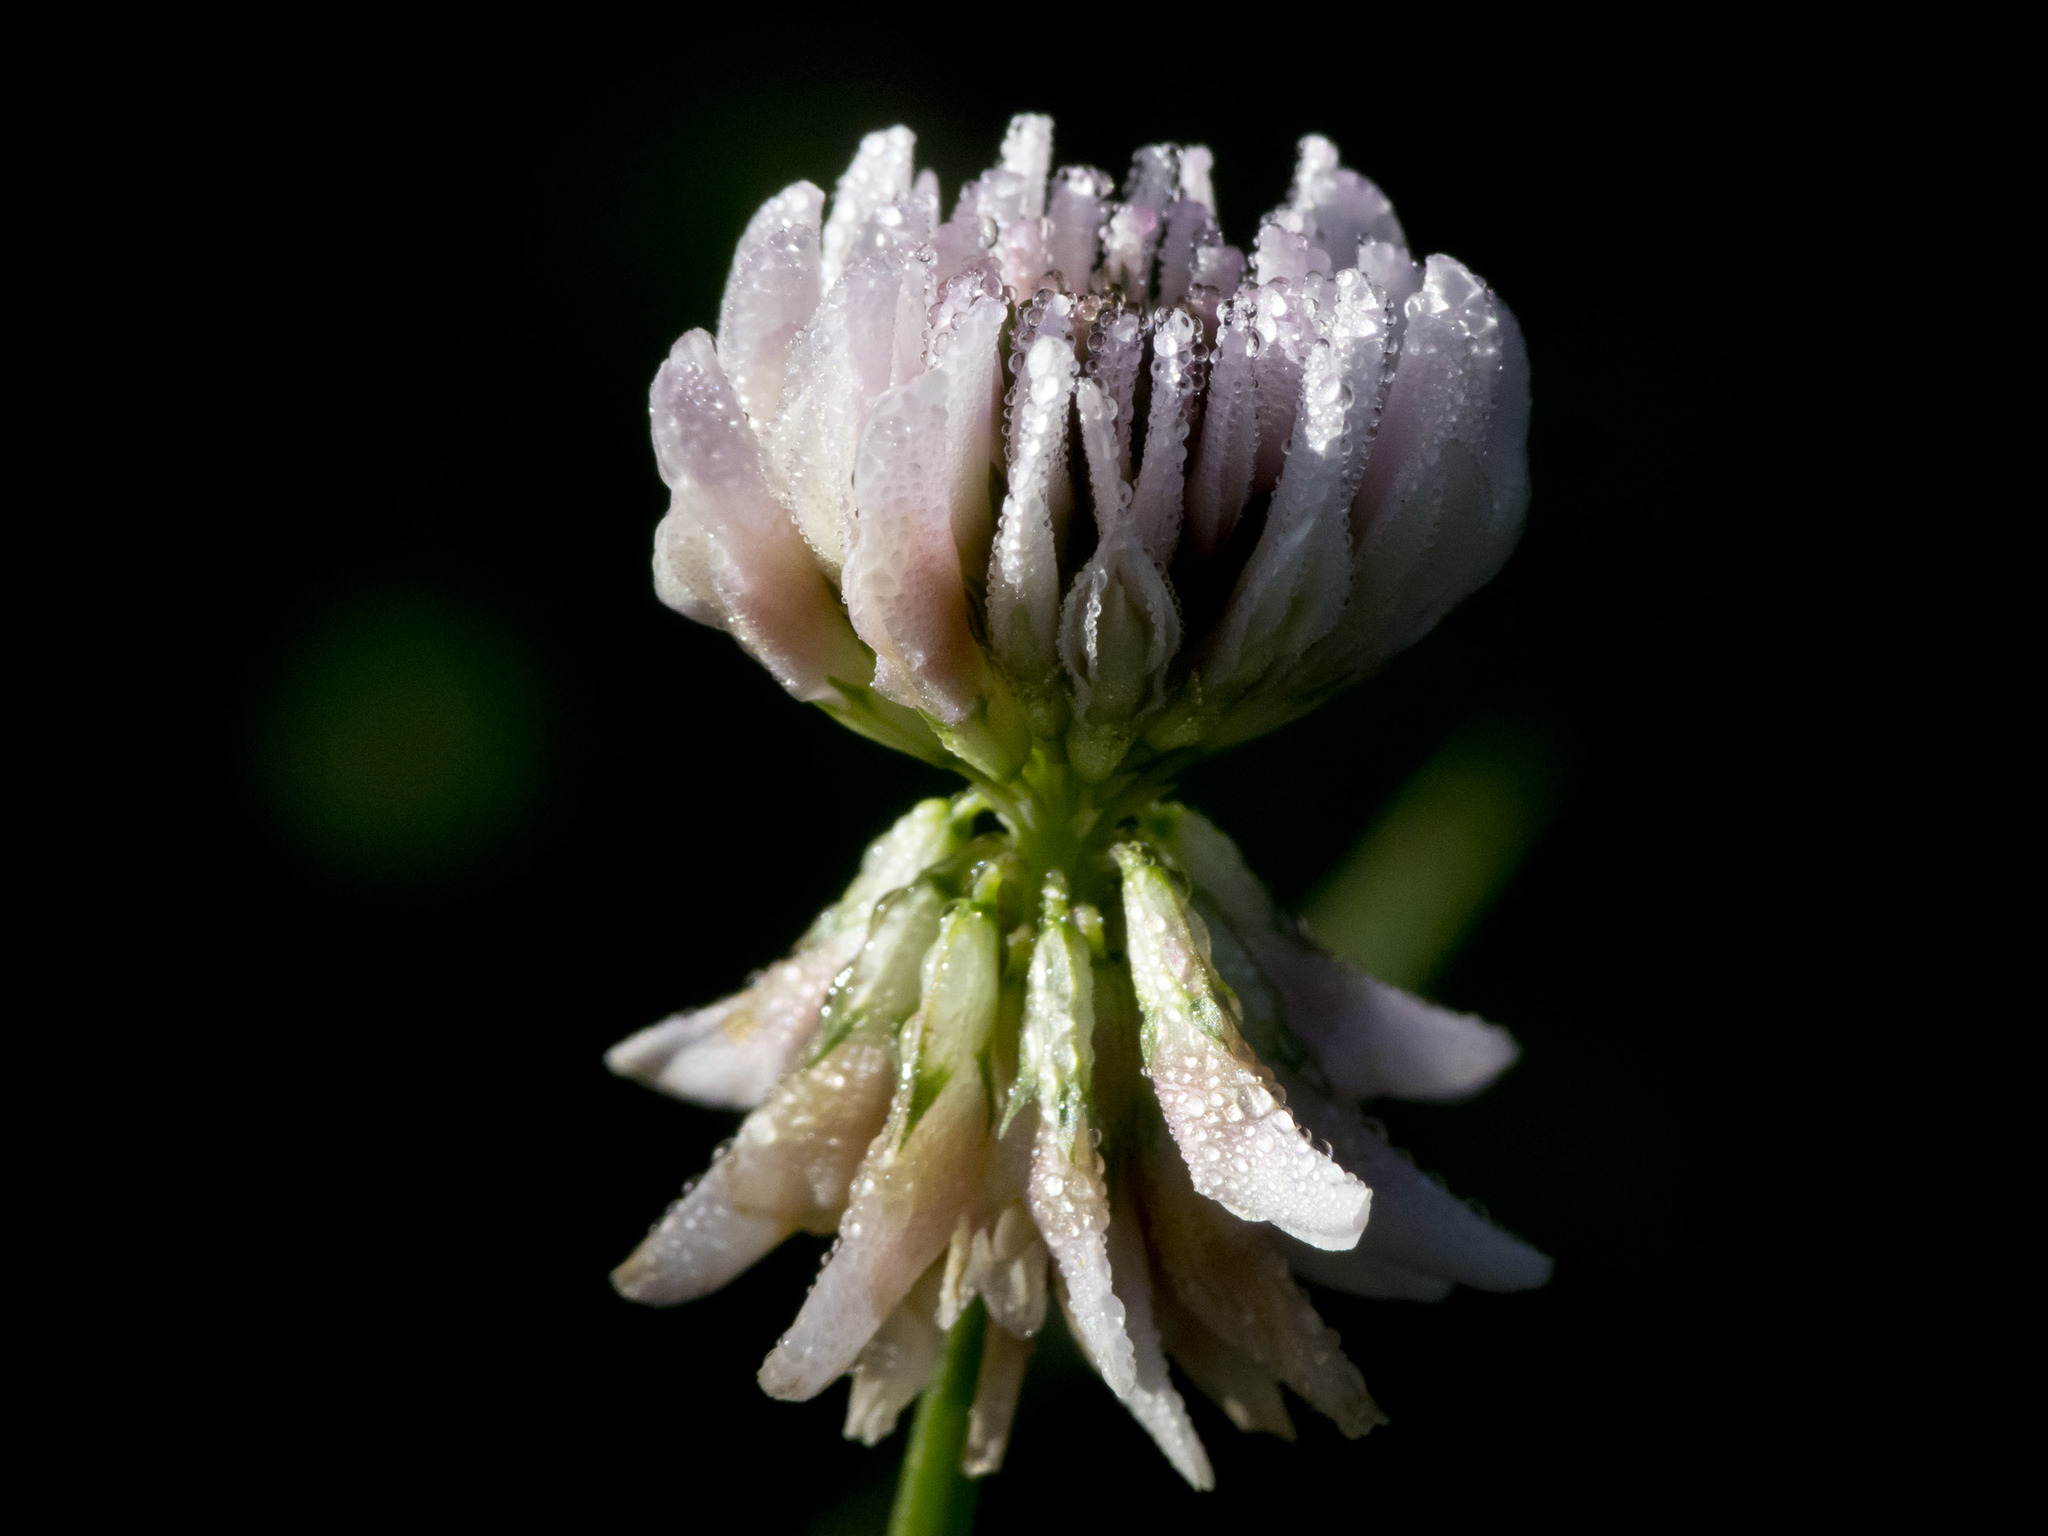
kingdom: Plantae
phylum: Tracheophyta
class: Magnoliopsida
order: Fabales
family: Fabaceae
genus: Trifolium
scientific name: Trifolium repens
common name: White clover
